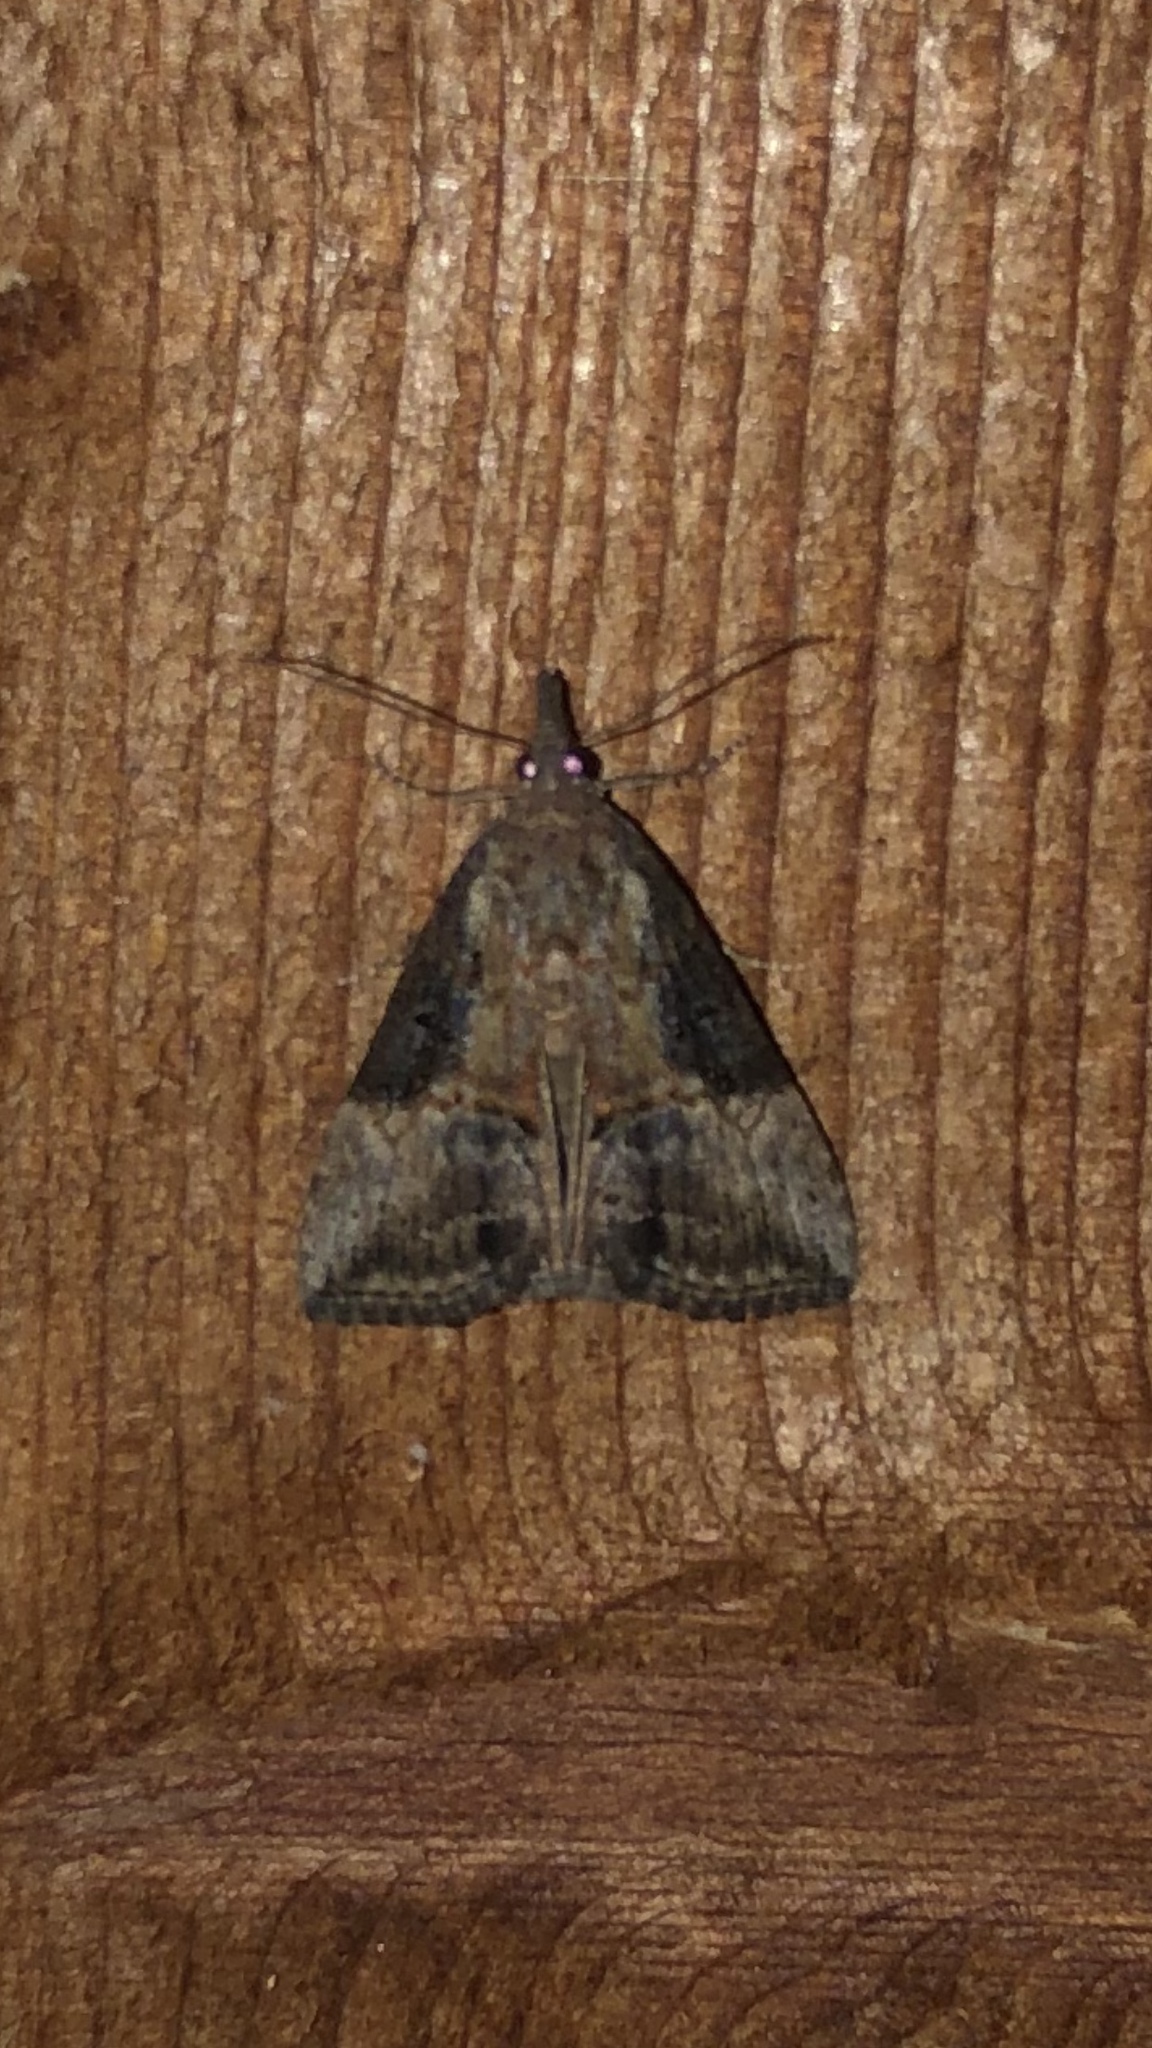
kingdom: Animalia
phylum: Arthropoda
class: Insecta
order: Lepidoptera
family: Erebidae
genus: Hypena
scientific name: Hypena scabra
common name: Green cloverworm
